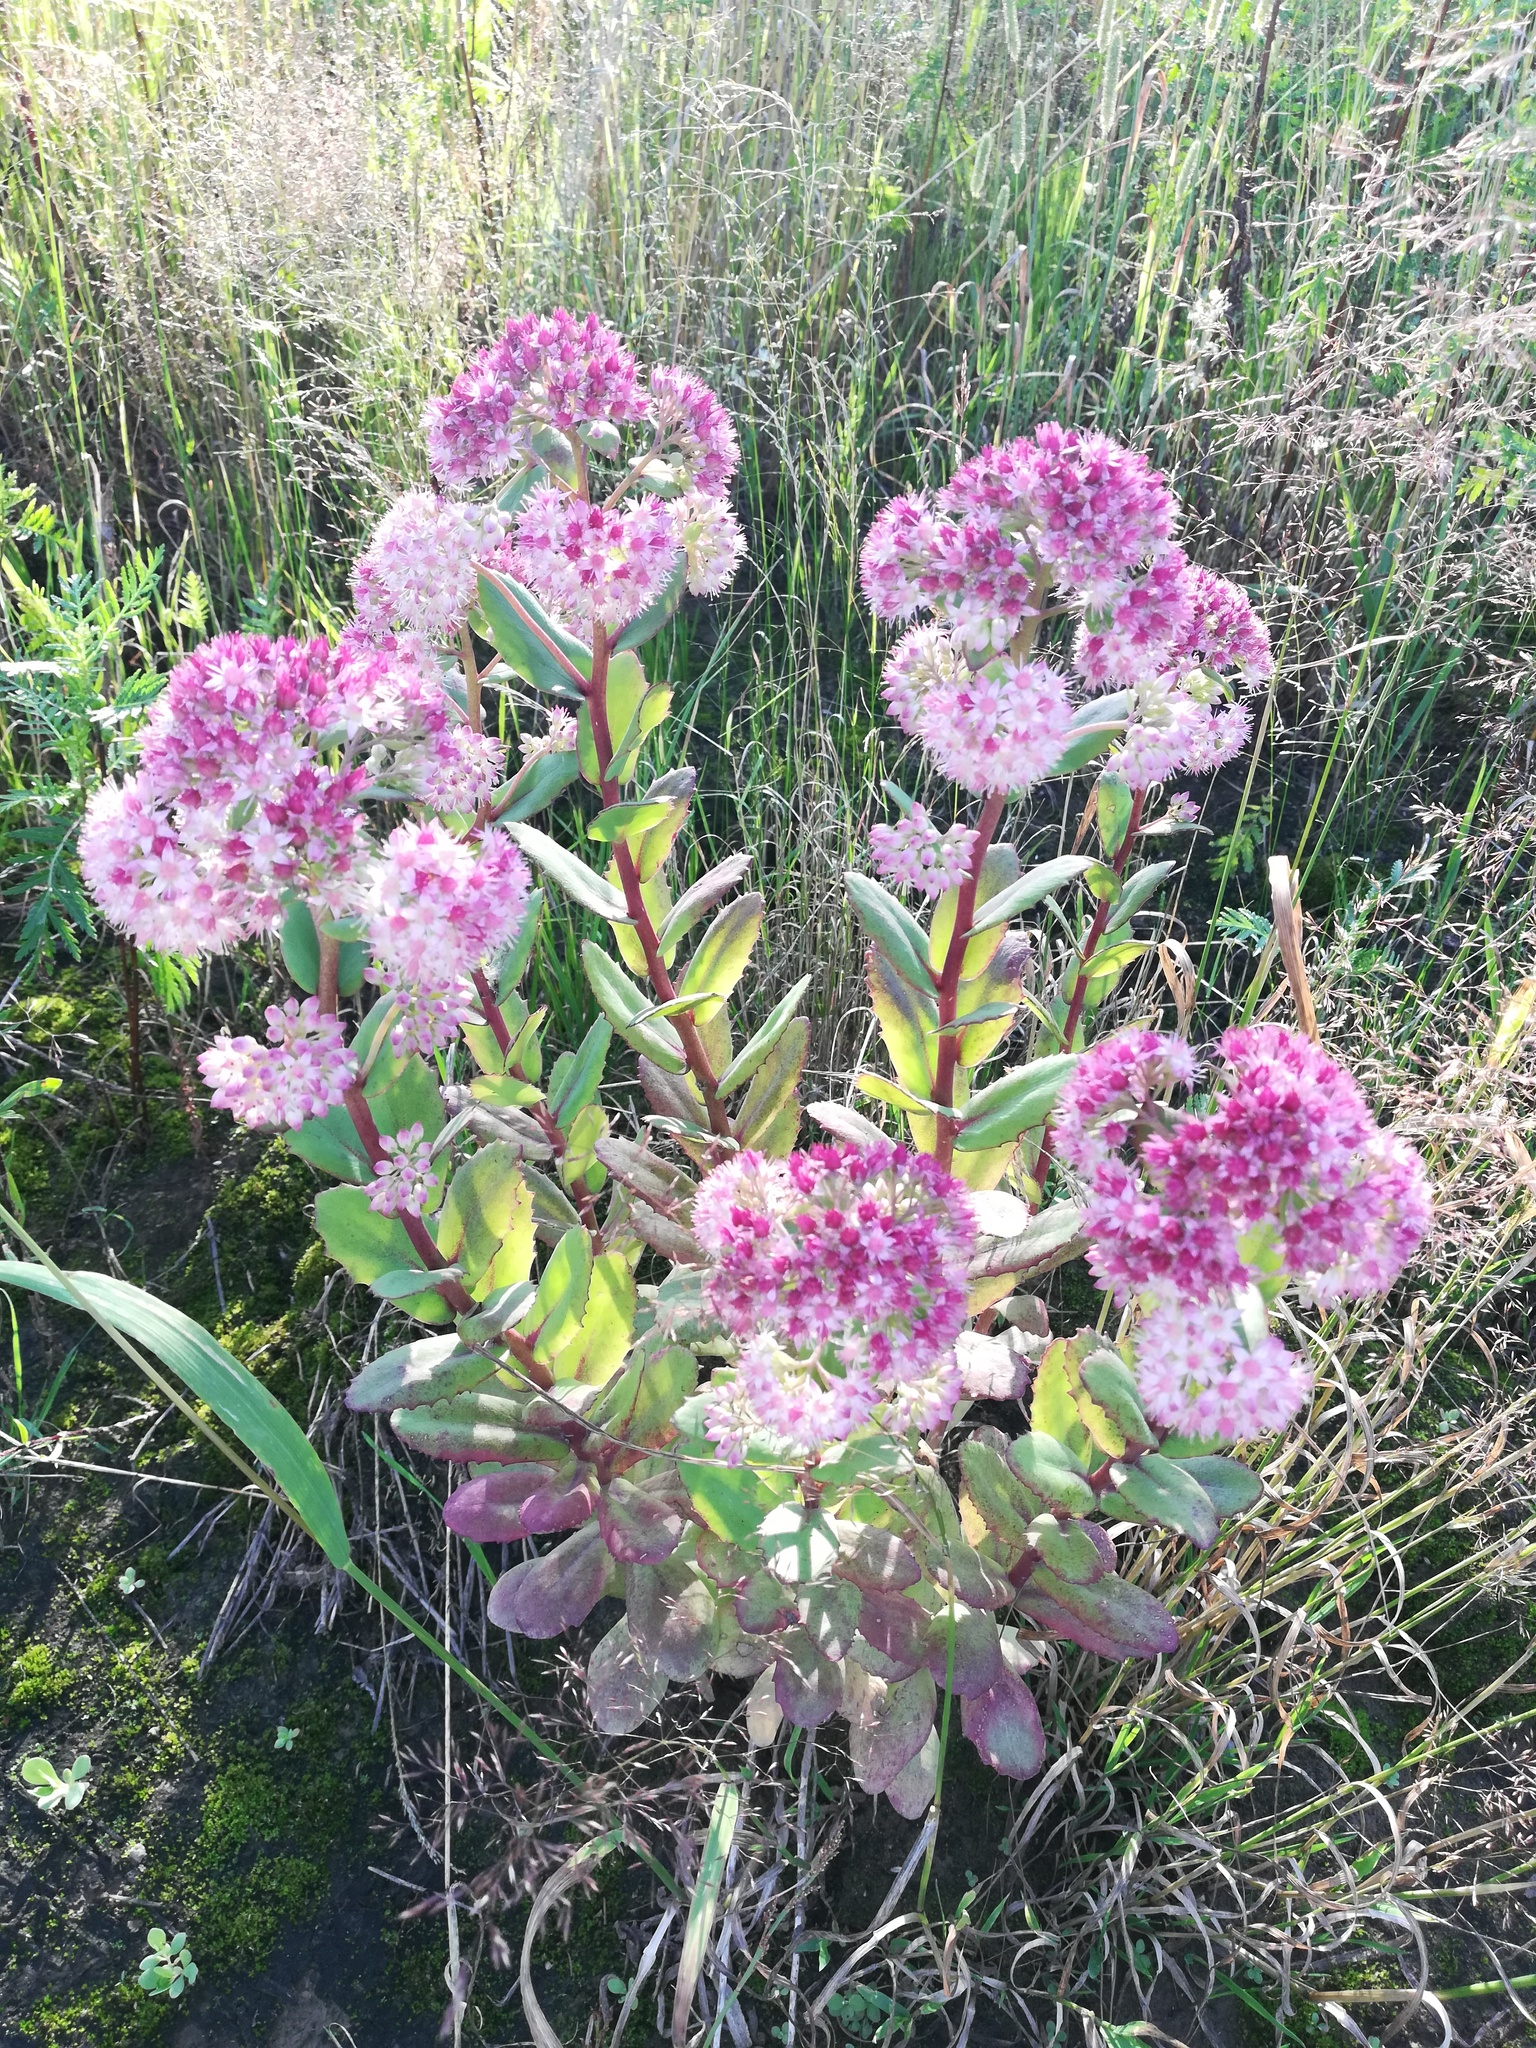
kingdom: Plantae
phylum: Tracheophyta
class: Magnoliopsida
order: Saxifragales
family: Crassulaceae
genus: Hylotelephium
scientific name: Hylotelephium telephium
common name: Live-forever
